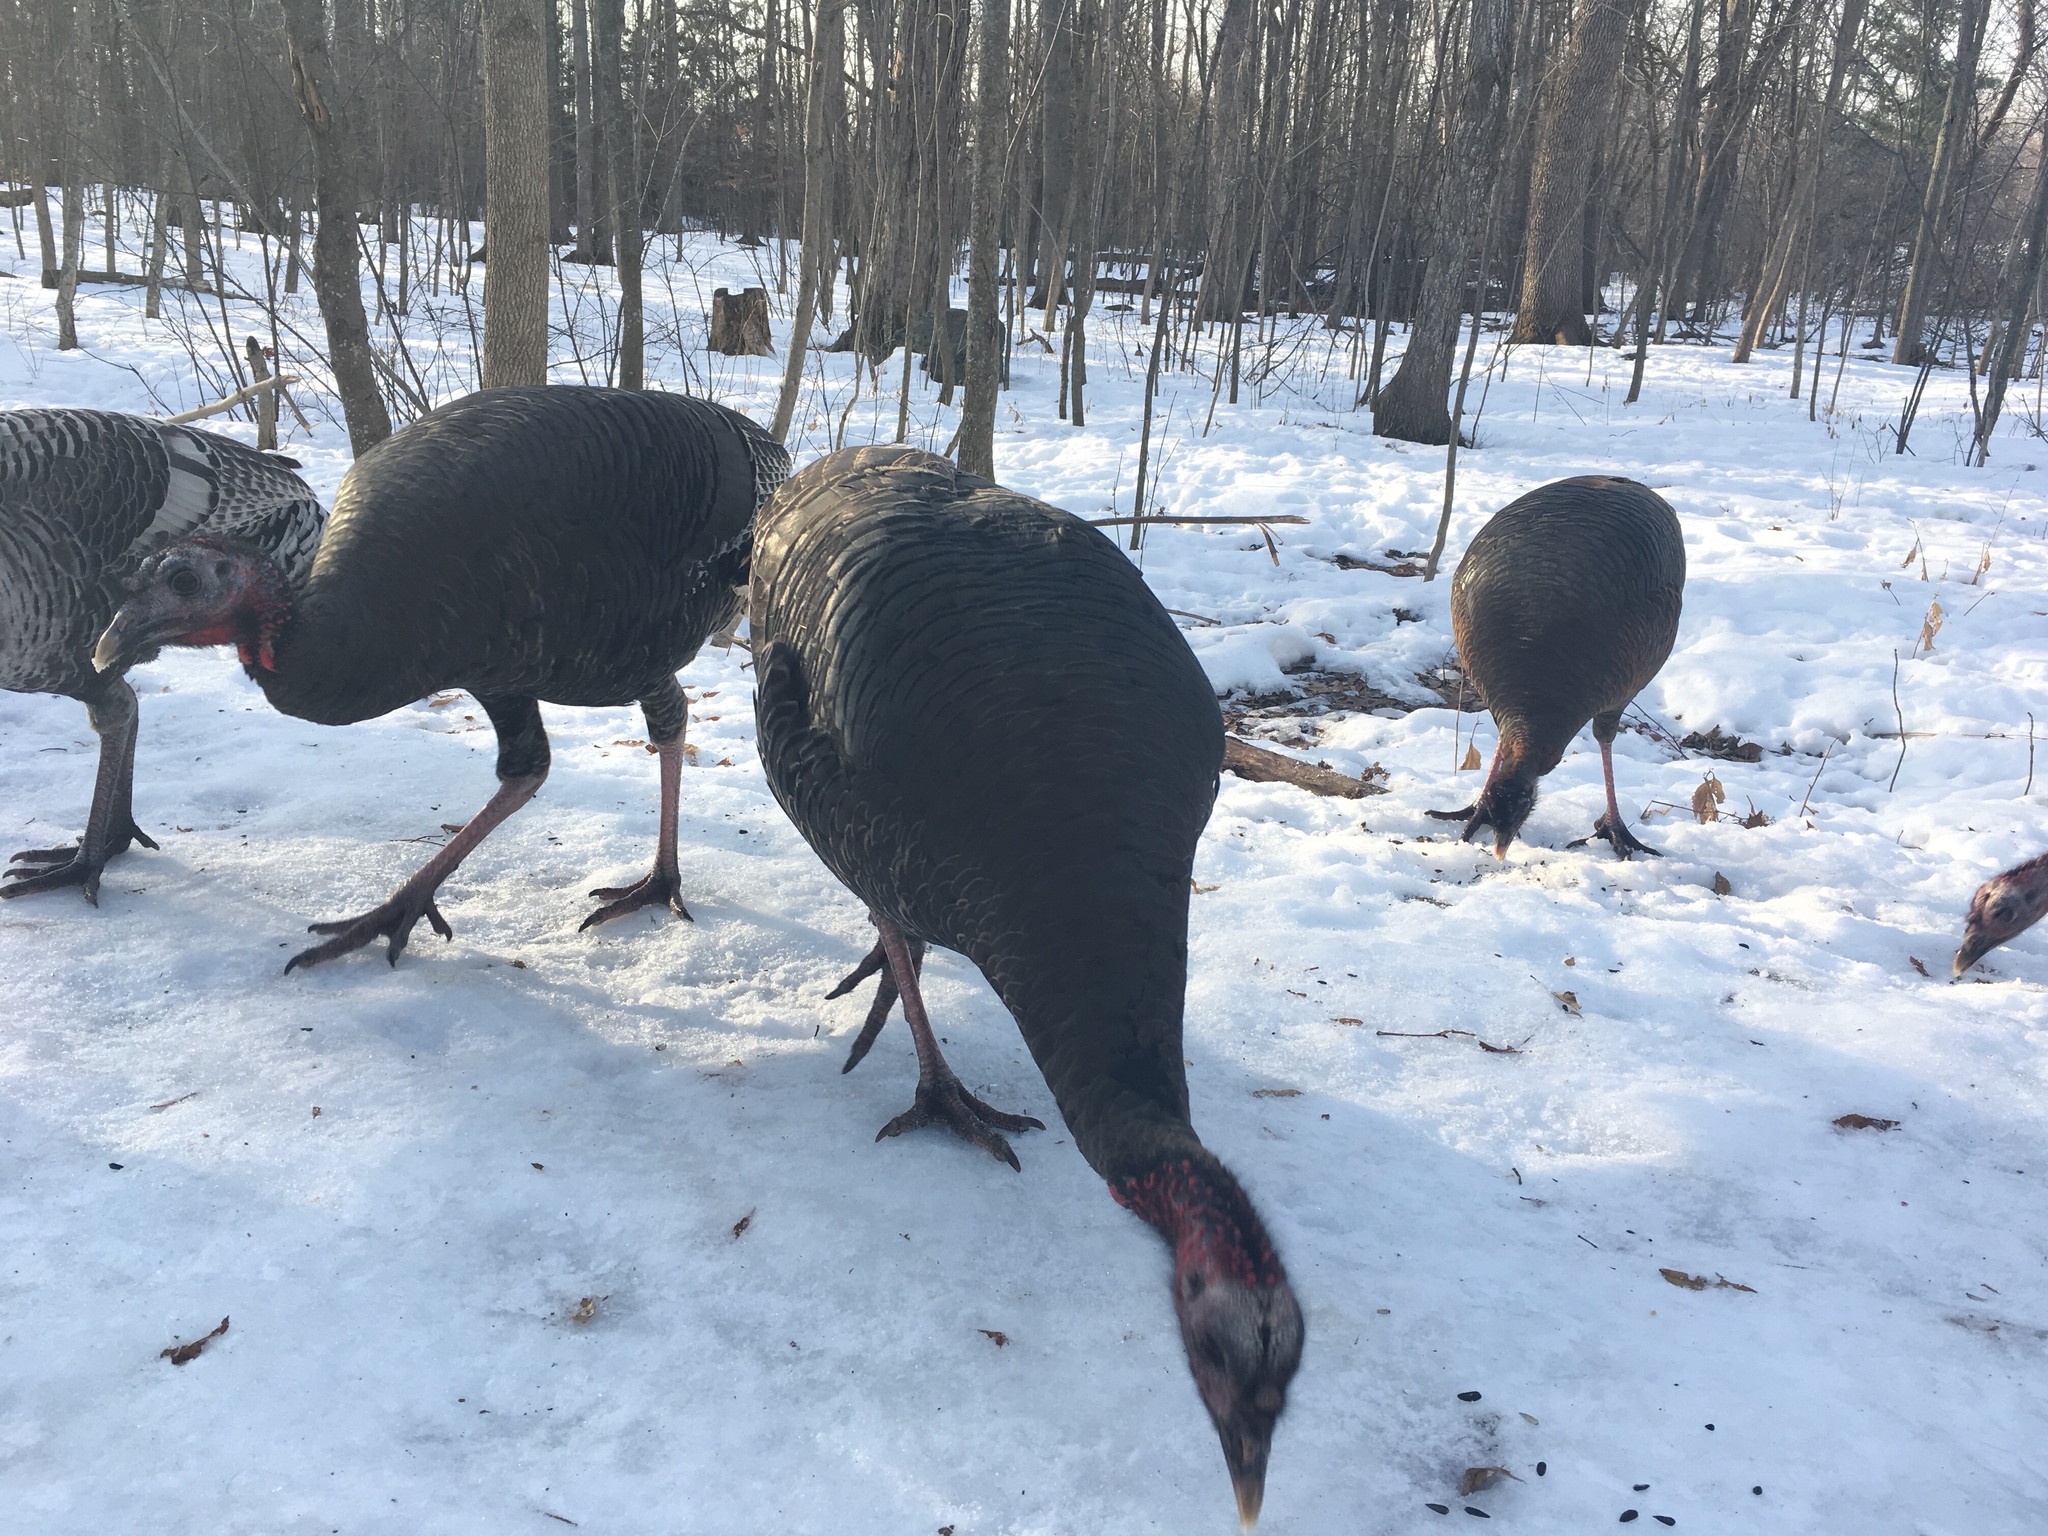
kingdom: Animalia
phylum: Chordata
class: Aves
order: Galliformes
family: Phasianidae
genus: Meleagris
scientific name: Meleagris gallopavo
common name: Wild turkey
